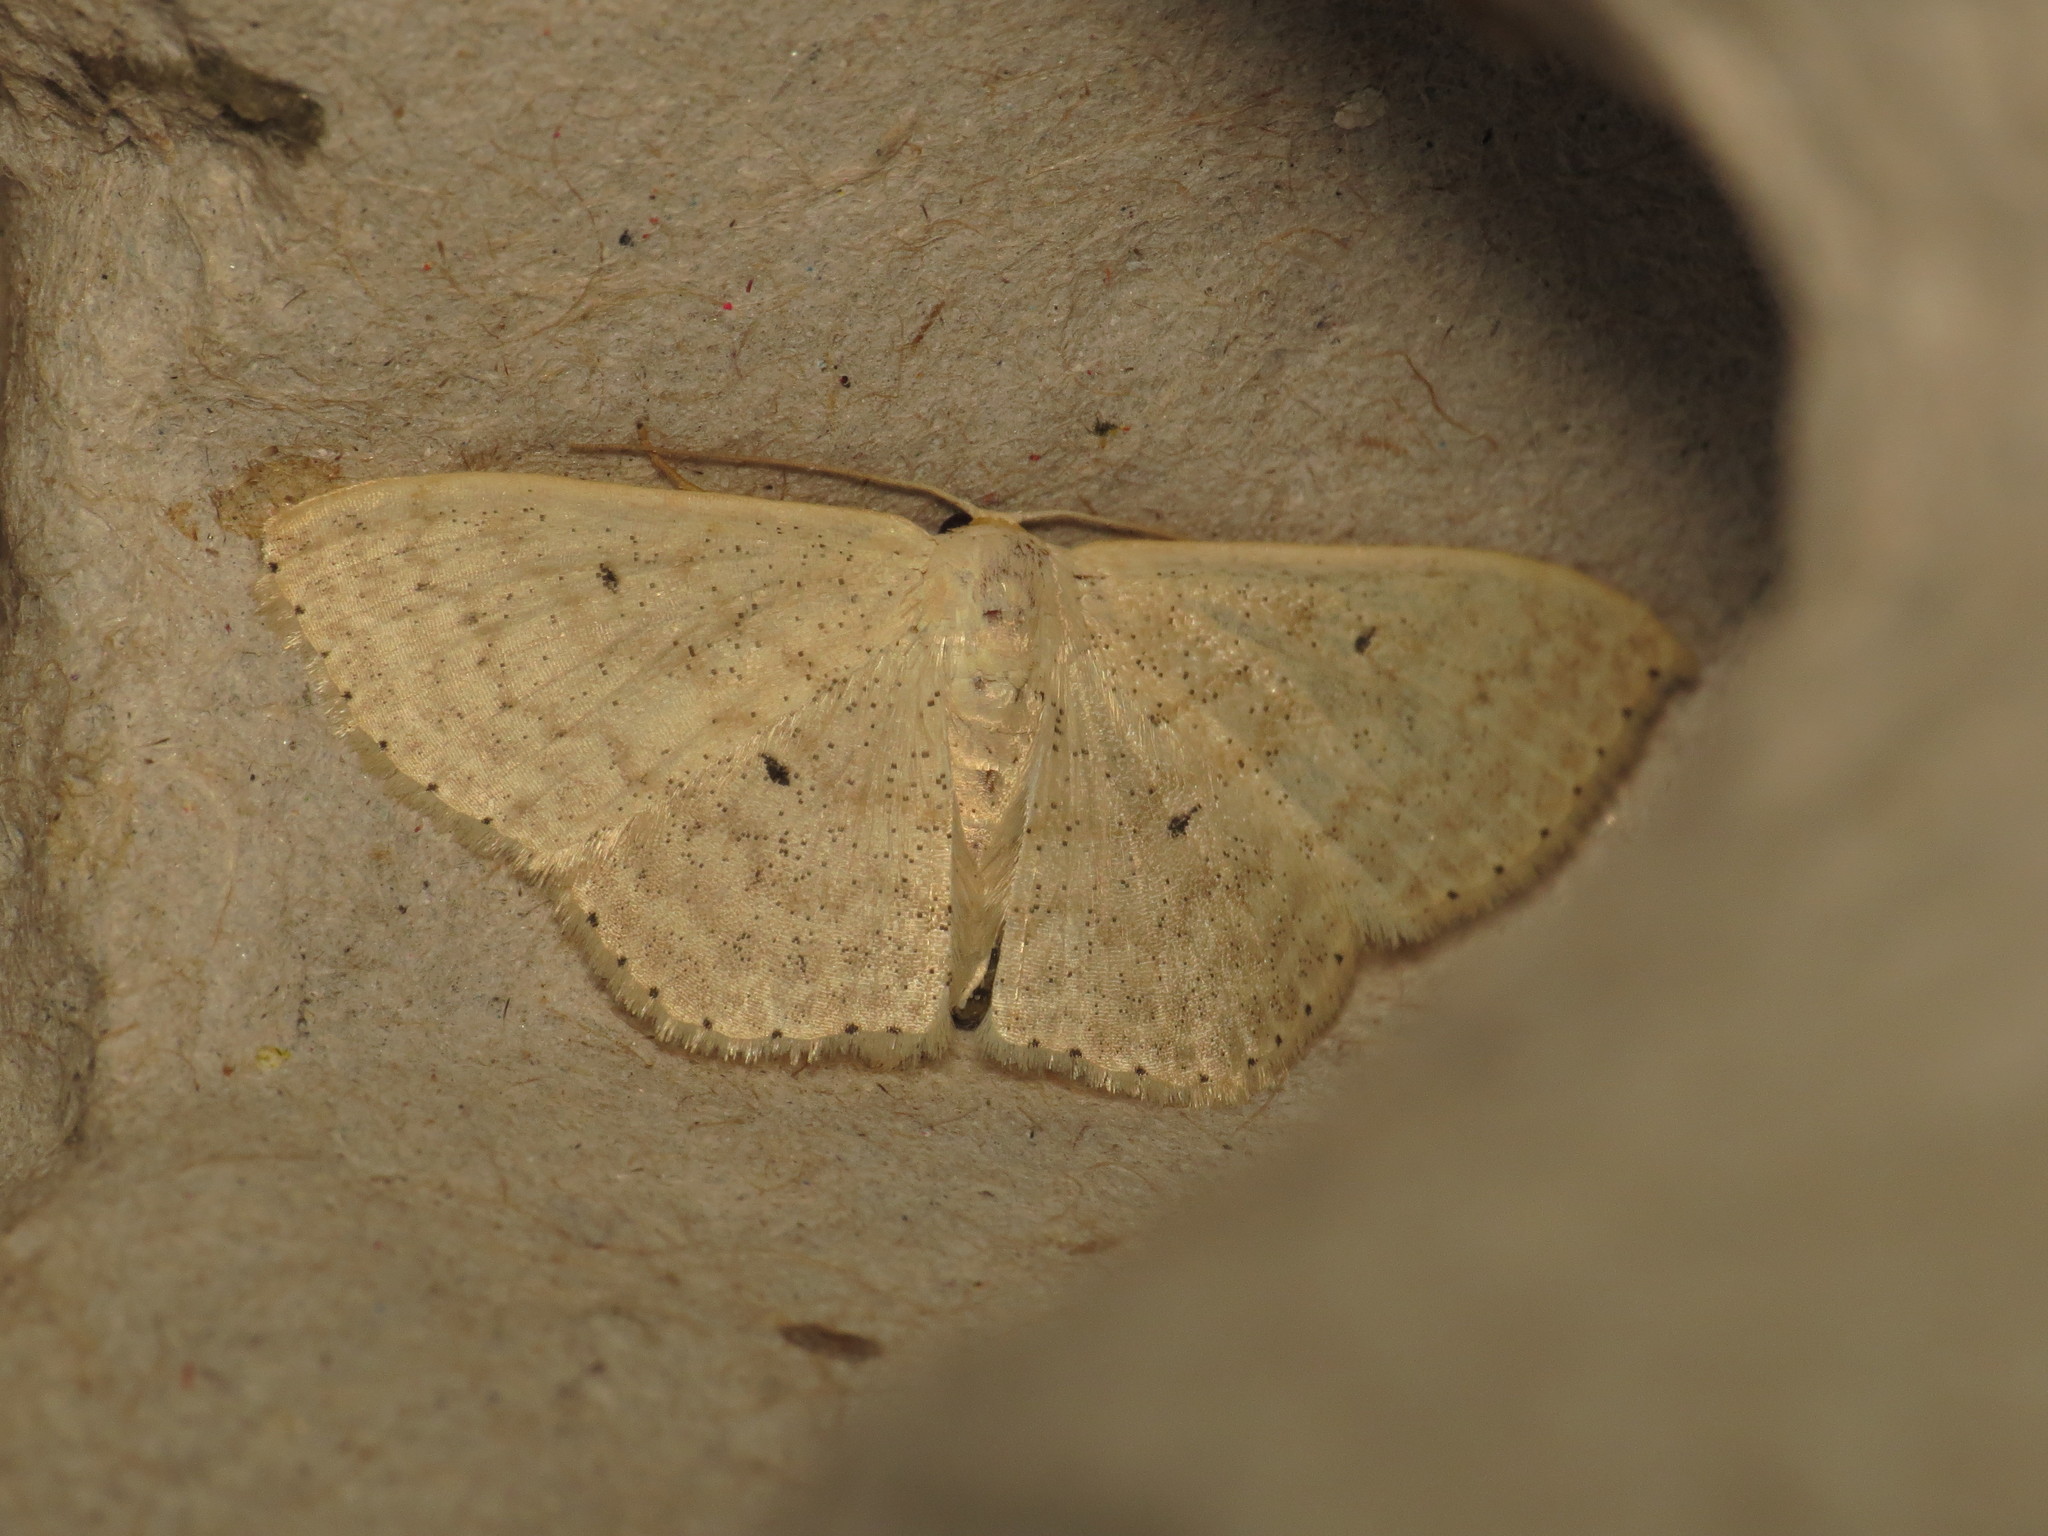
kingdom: Animalia
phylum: Arthropoda
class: Insecta
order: Lepidoptera
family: Geometridae
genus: Scopula
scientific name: Scopula prosoeca
